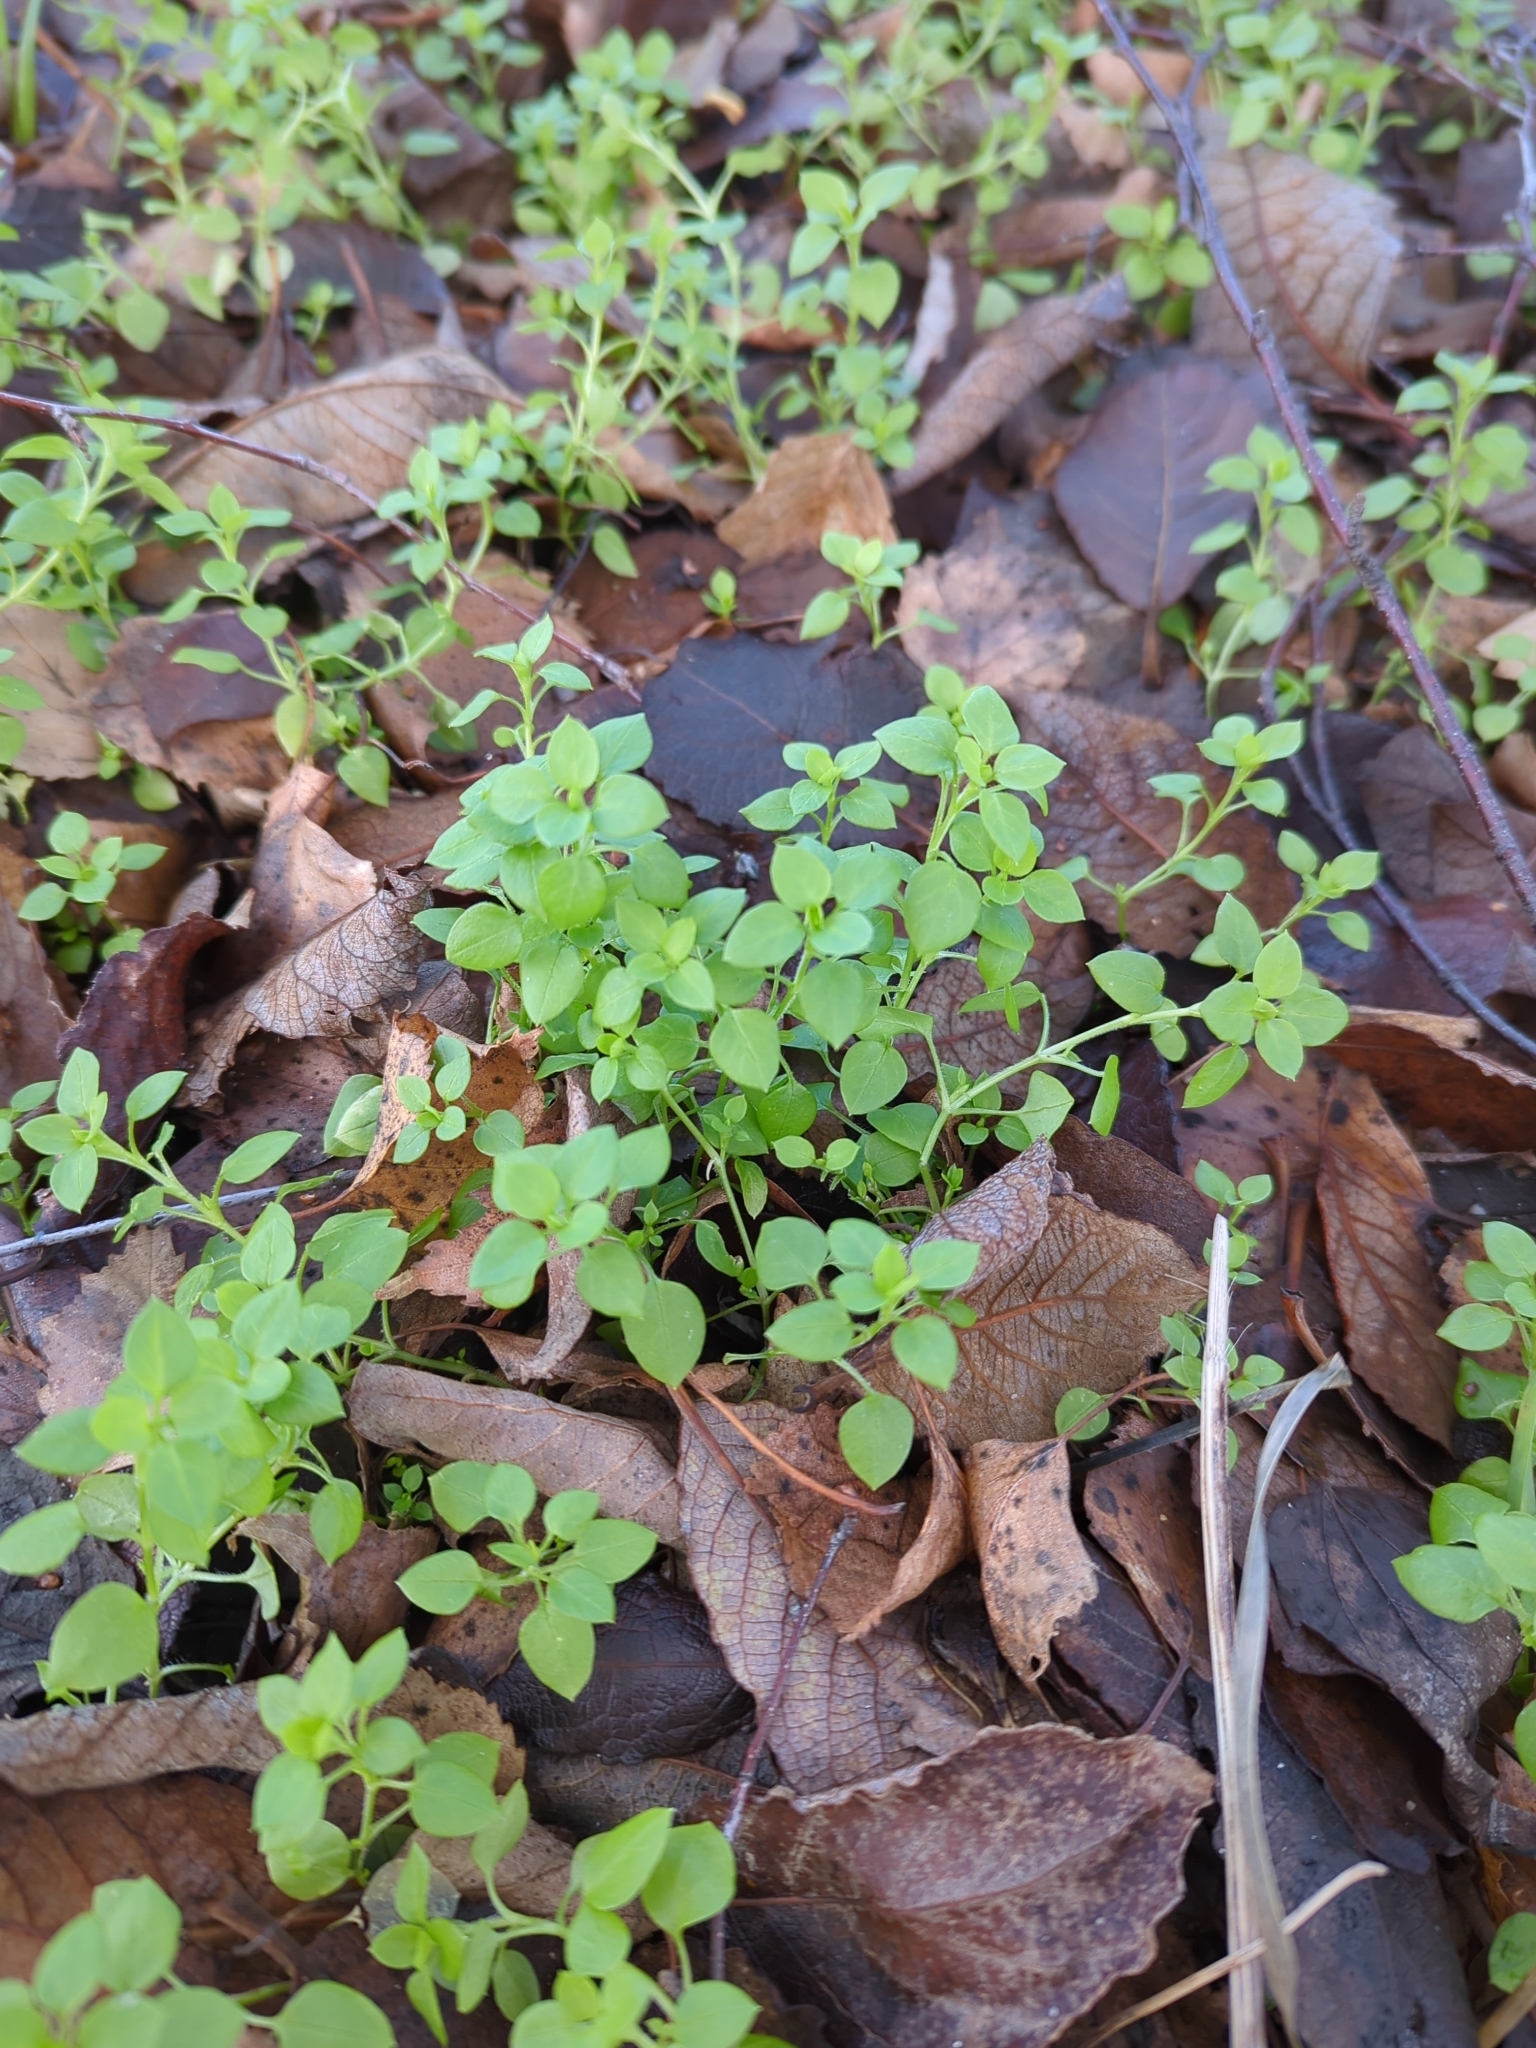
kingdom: Plantae
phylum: Tracheophyta
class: Magnoliopsida
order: Caryophyllales
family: Caryophyllaceae
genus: Stellaria
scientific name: Stellaria media
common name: Common chickweed
